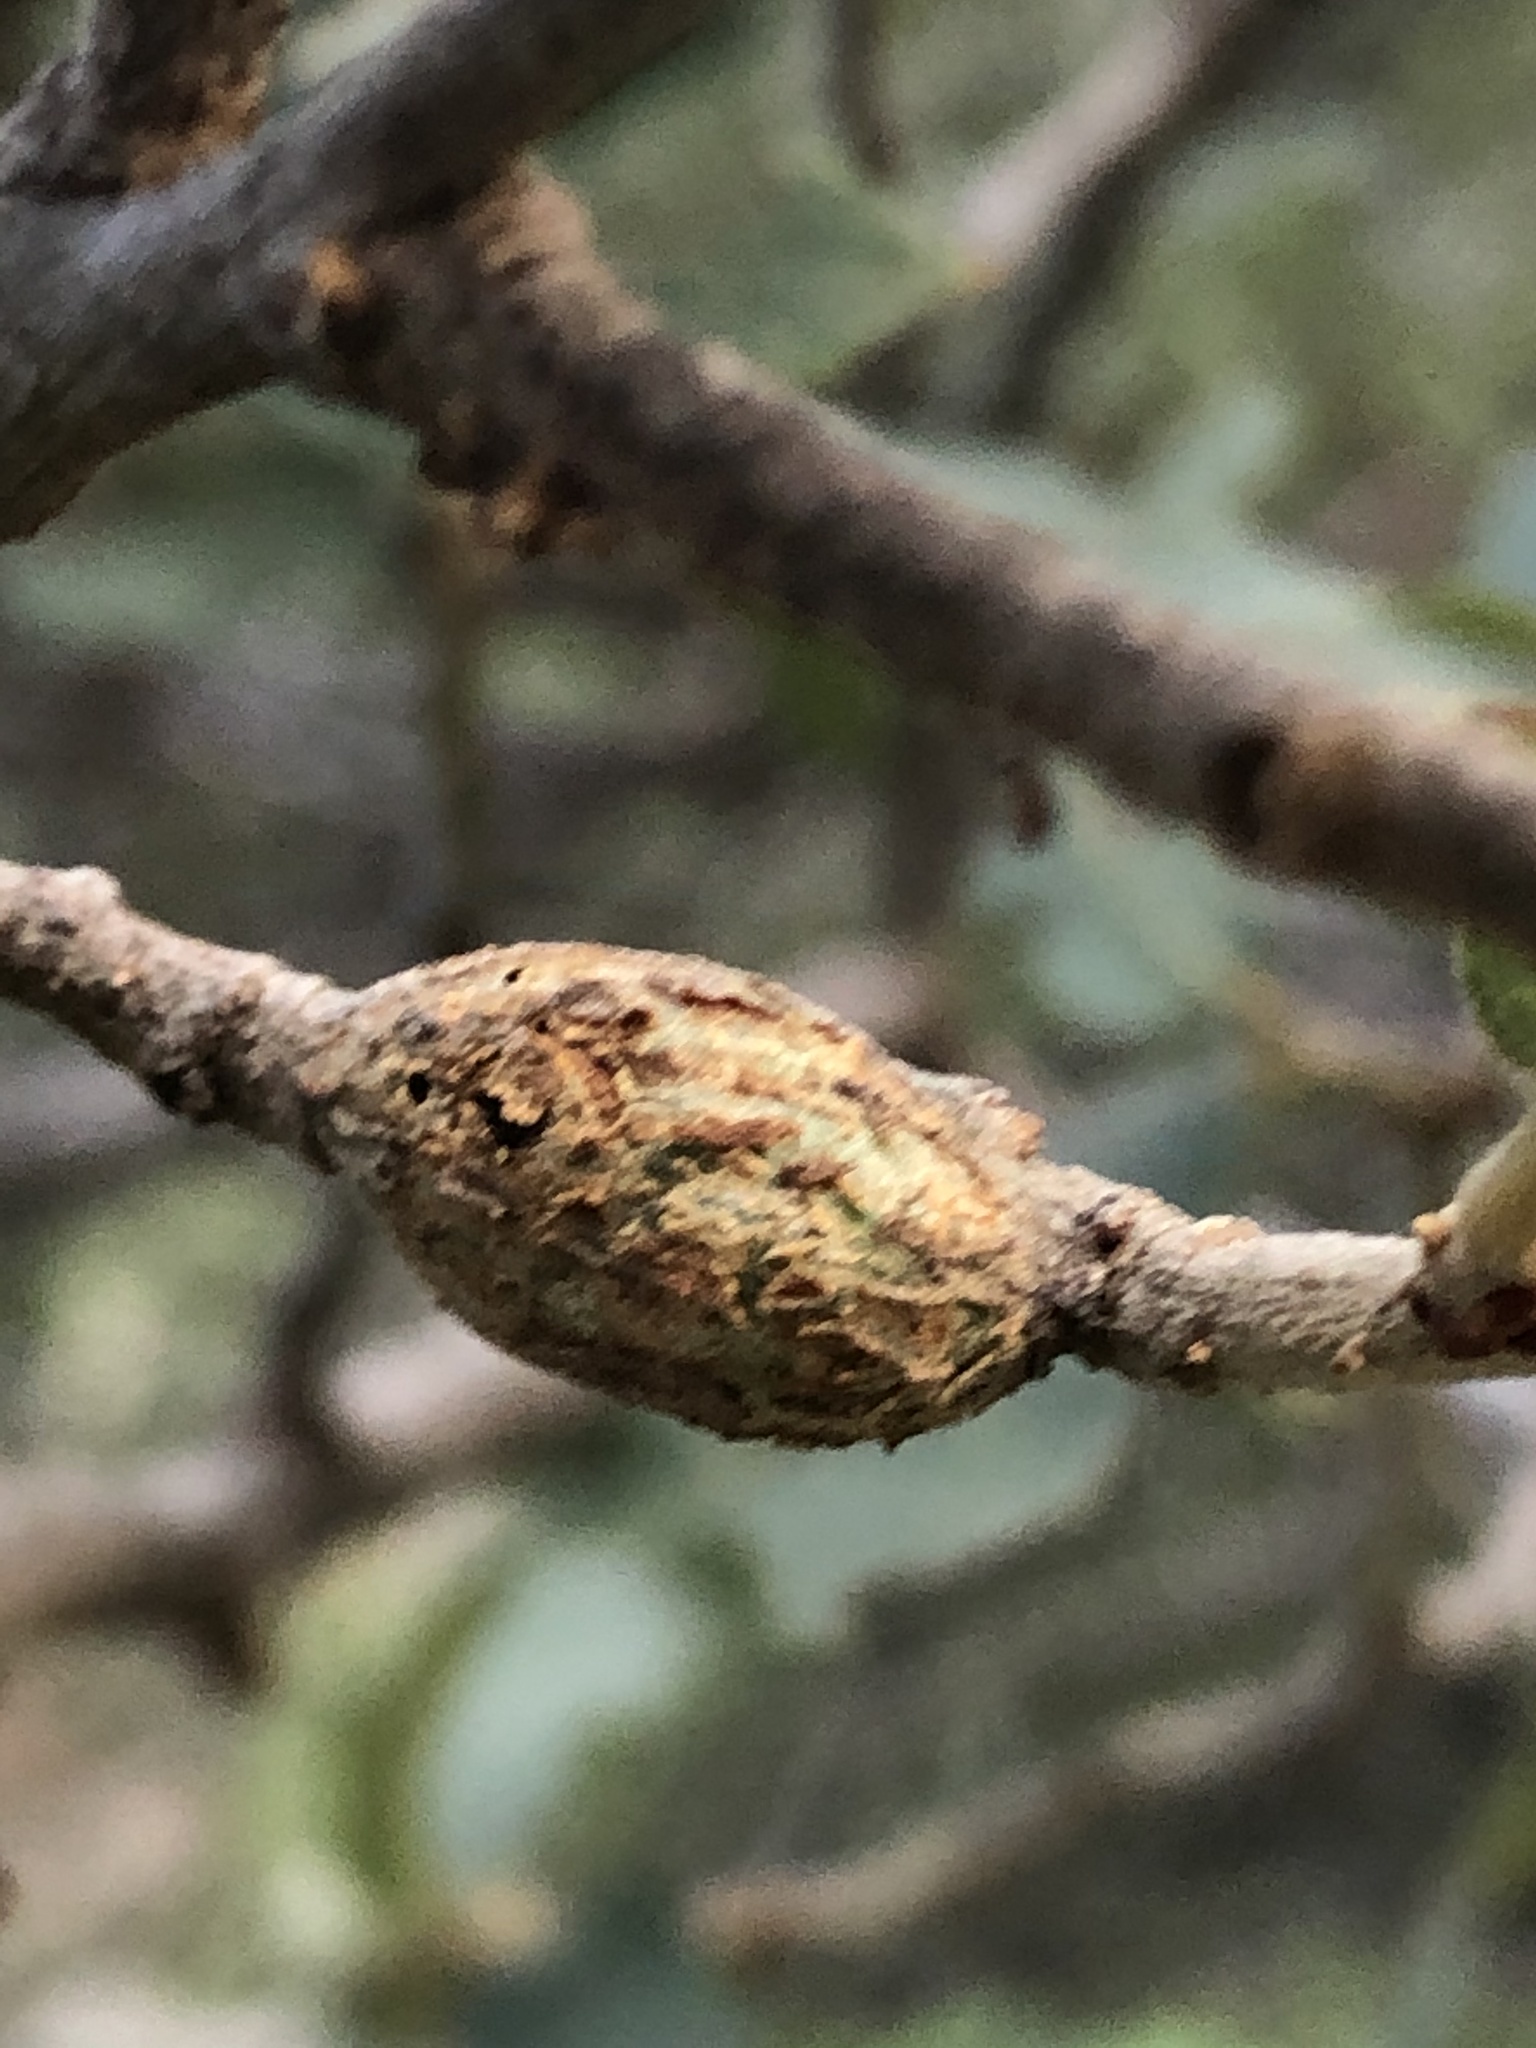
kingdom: Animalia
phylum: Arthropoda
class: Insecta
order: Hymenoptera
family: Cynipidae
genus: Kokkocynips
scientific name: Kokkocynips coxii
